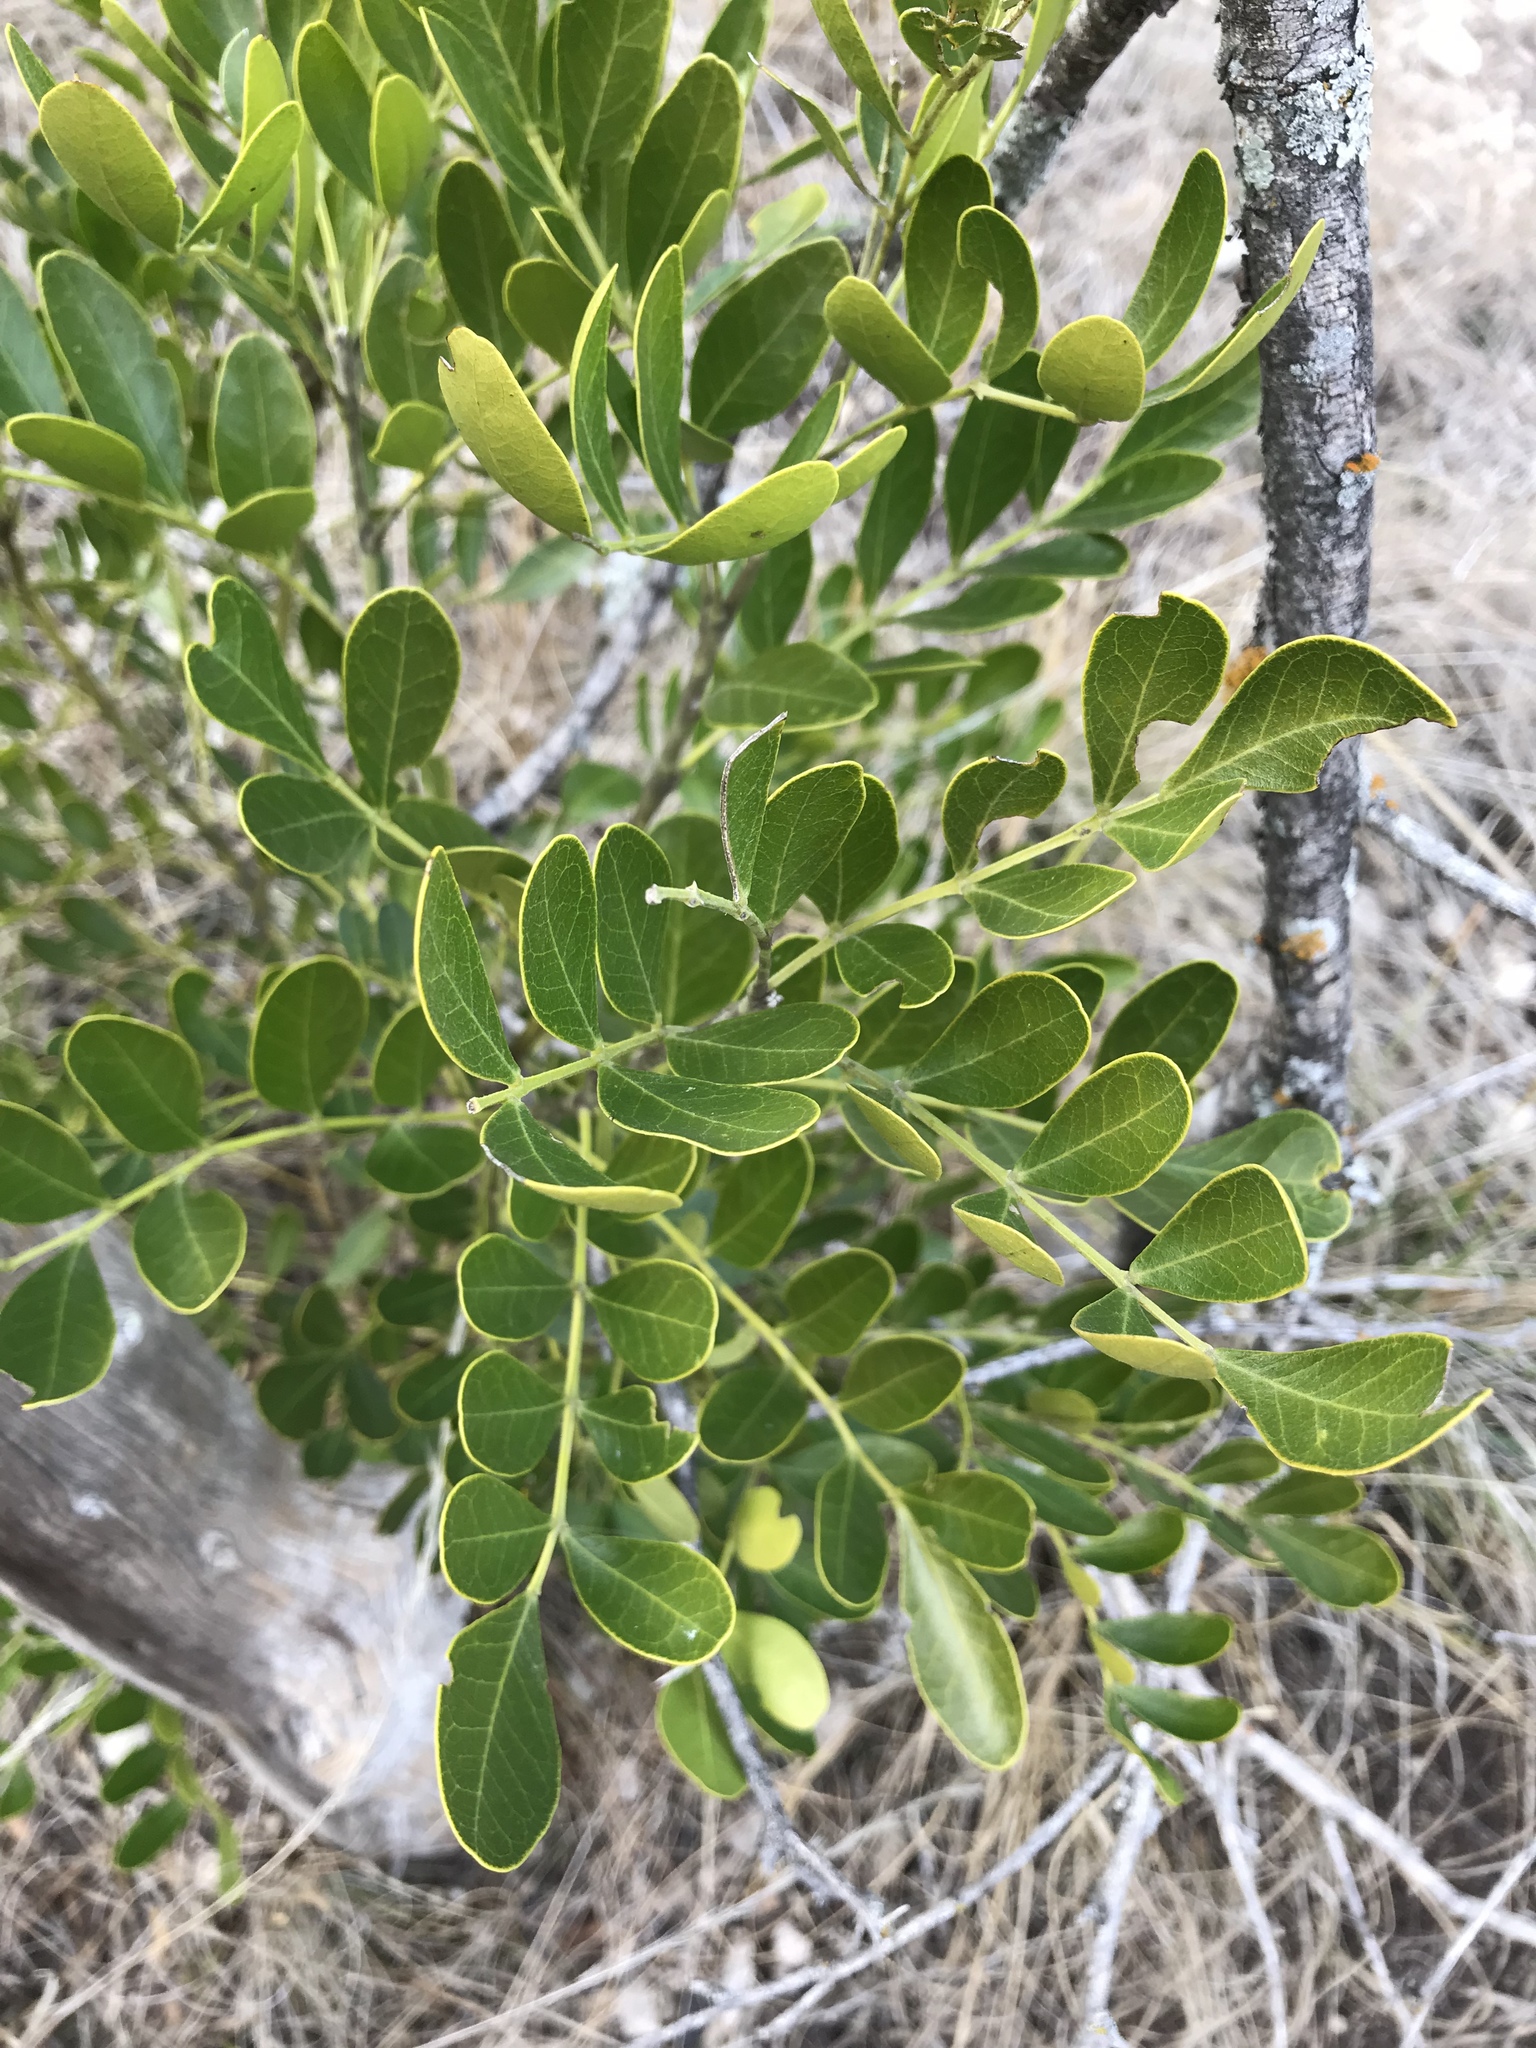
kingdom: Plantae
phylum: Tracheophyta
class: Magnoliopsida
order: Fabales
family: Fabaceae
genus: Dermatophyllum
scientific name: Dermatophyllum secundiflorum
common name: Texas-mountain-laurel
